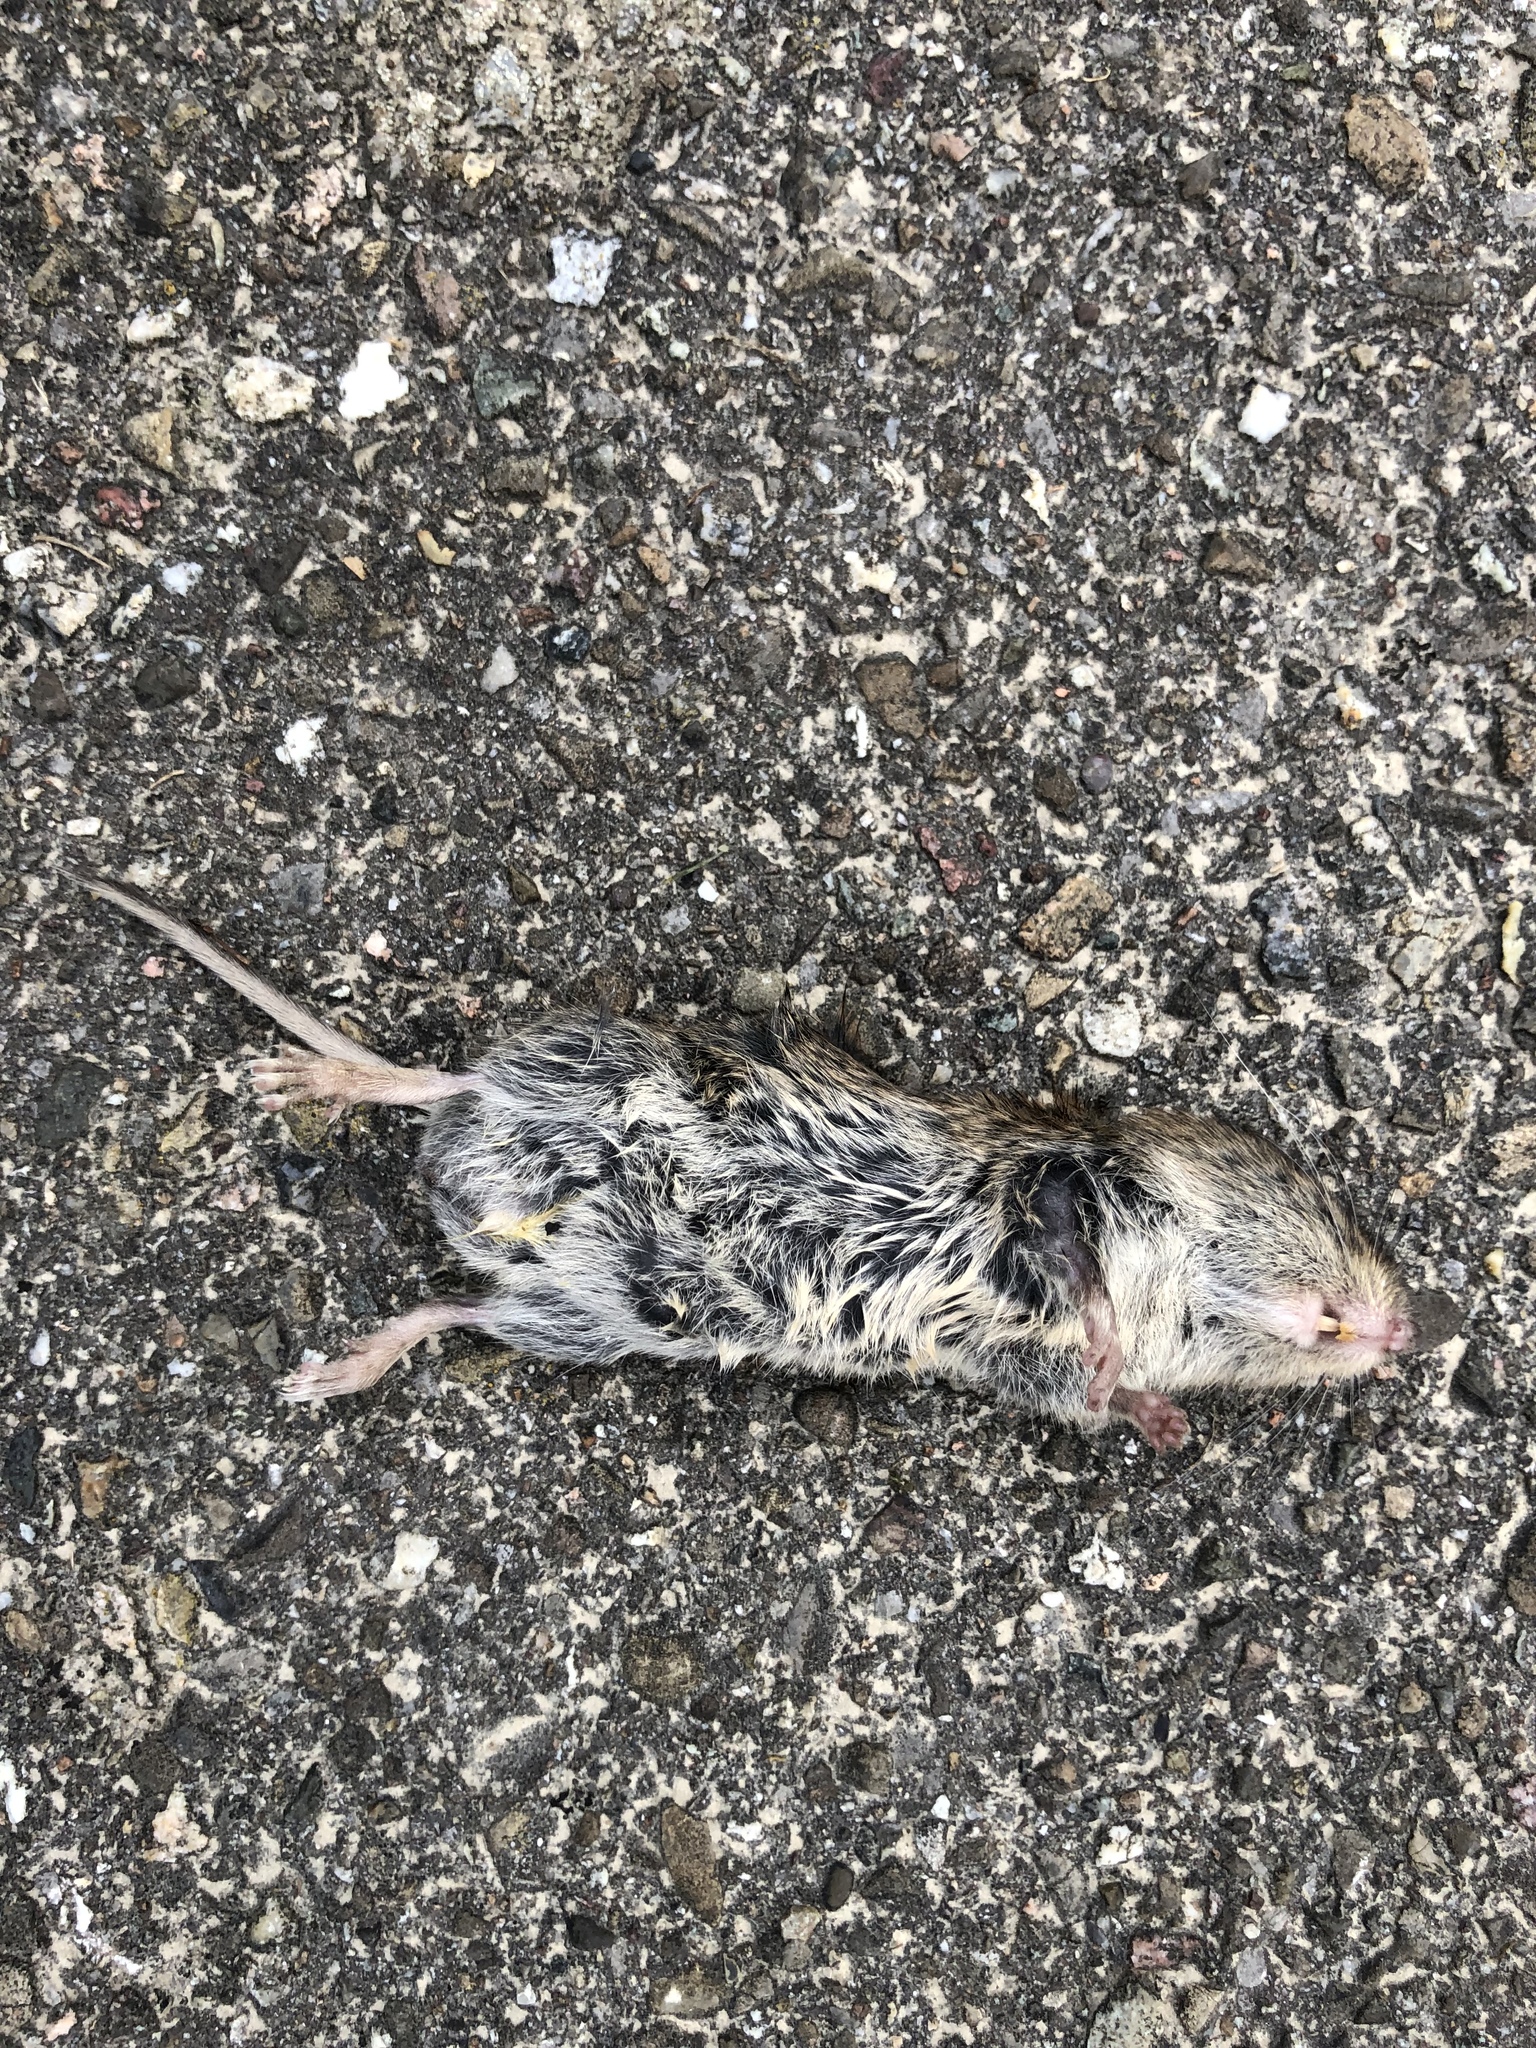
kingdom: Animalia
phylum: Chordata
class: Mammalia
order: Rodentia
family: Cricetidae
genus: Myodes
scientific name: Myodes glareolus
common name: Bank vole
